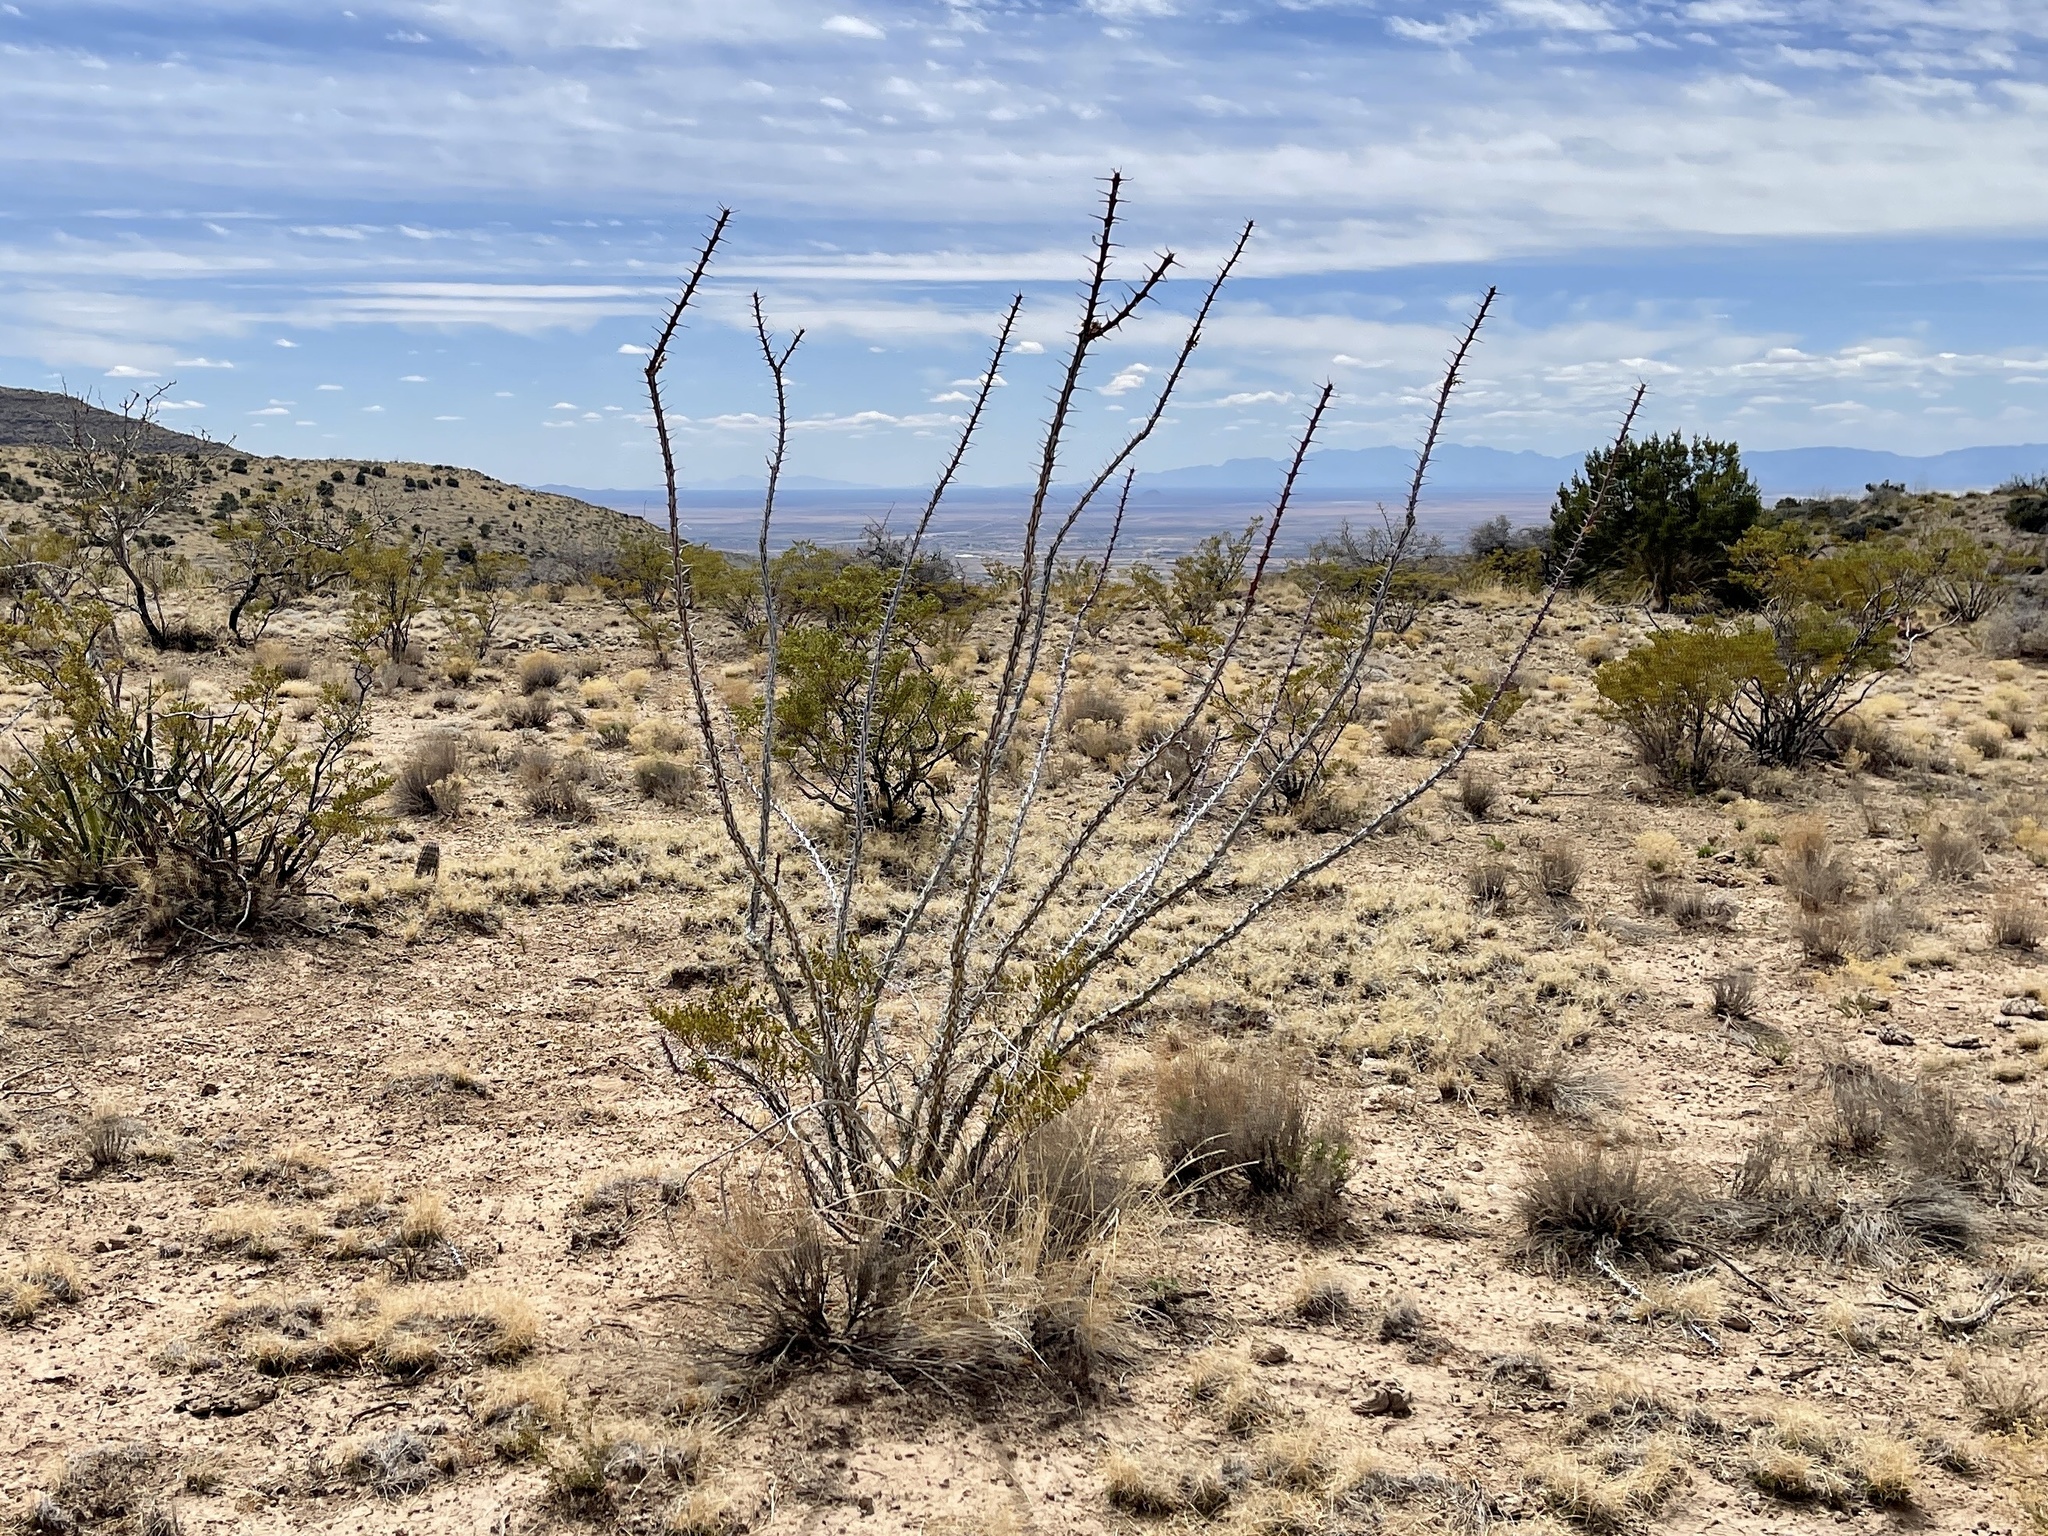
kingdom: Plantae
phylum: Tracheophyta
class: Magnoliopsida
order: Ericales
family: Fouquieriaceae
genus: Fouquieria
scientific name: Fouquieria splendens
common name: Vine-cactus
